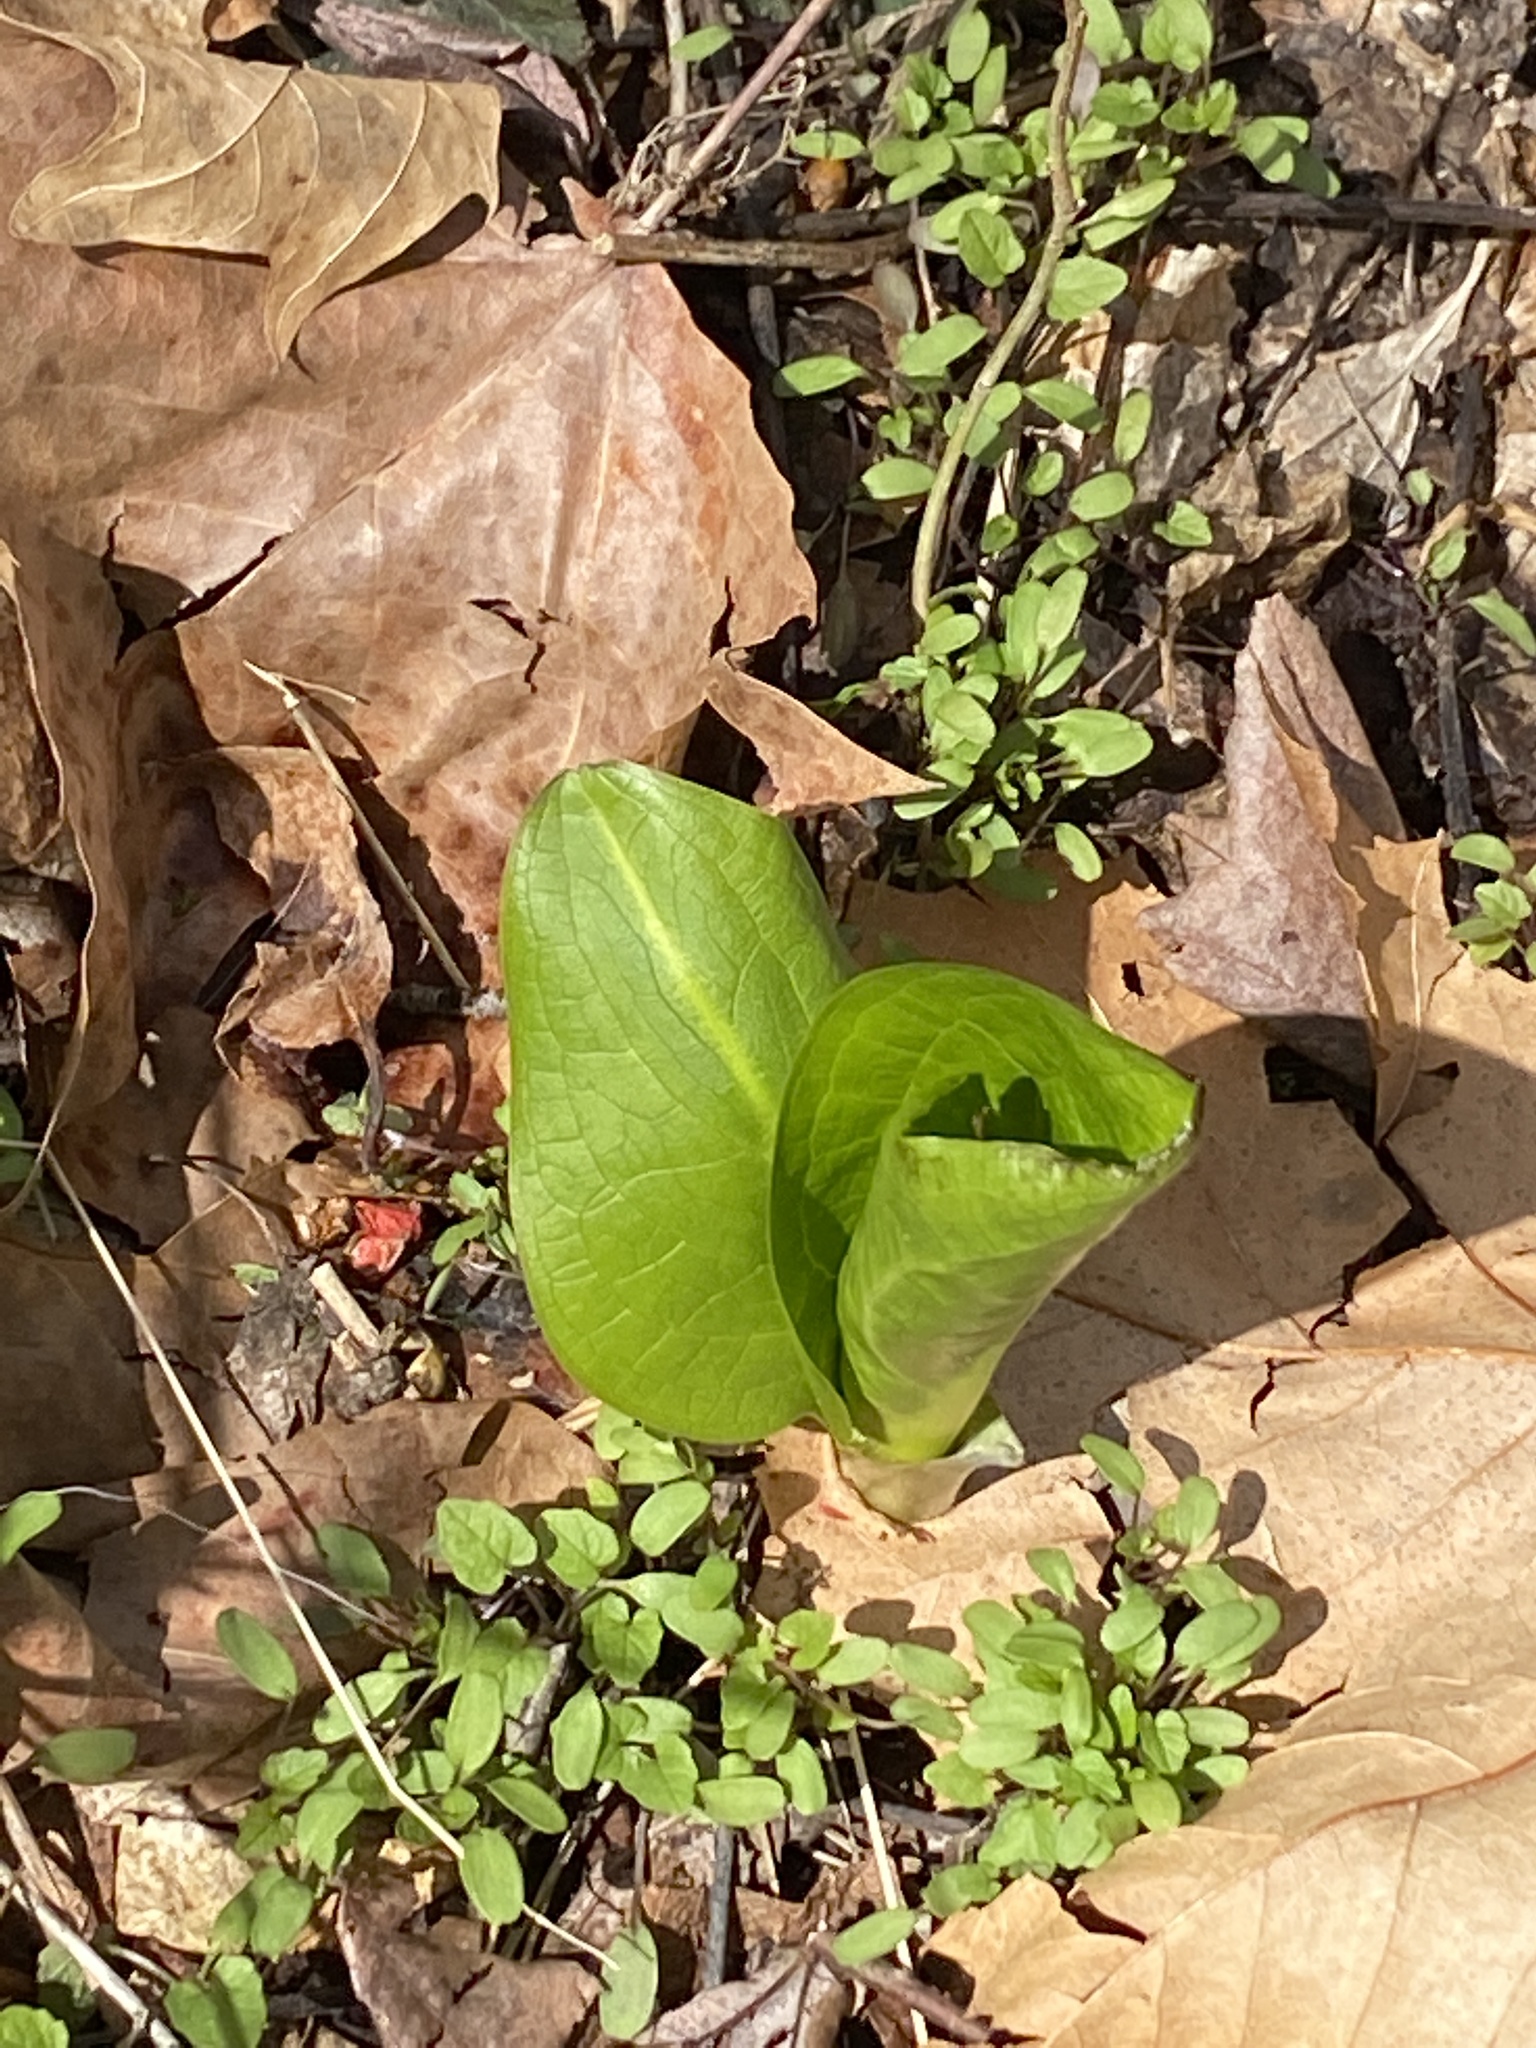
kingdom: Plantae
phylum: Tracheophyta
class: Liliopsida
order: Alismatales
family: Araceae
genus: Symplocarpus
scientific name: Symplocarpus foetidus
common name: Eastern skunk cabbage
